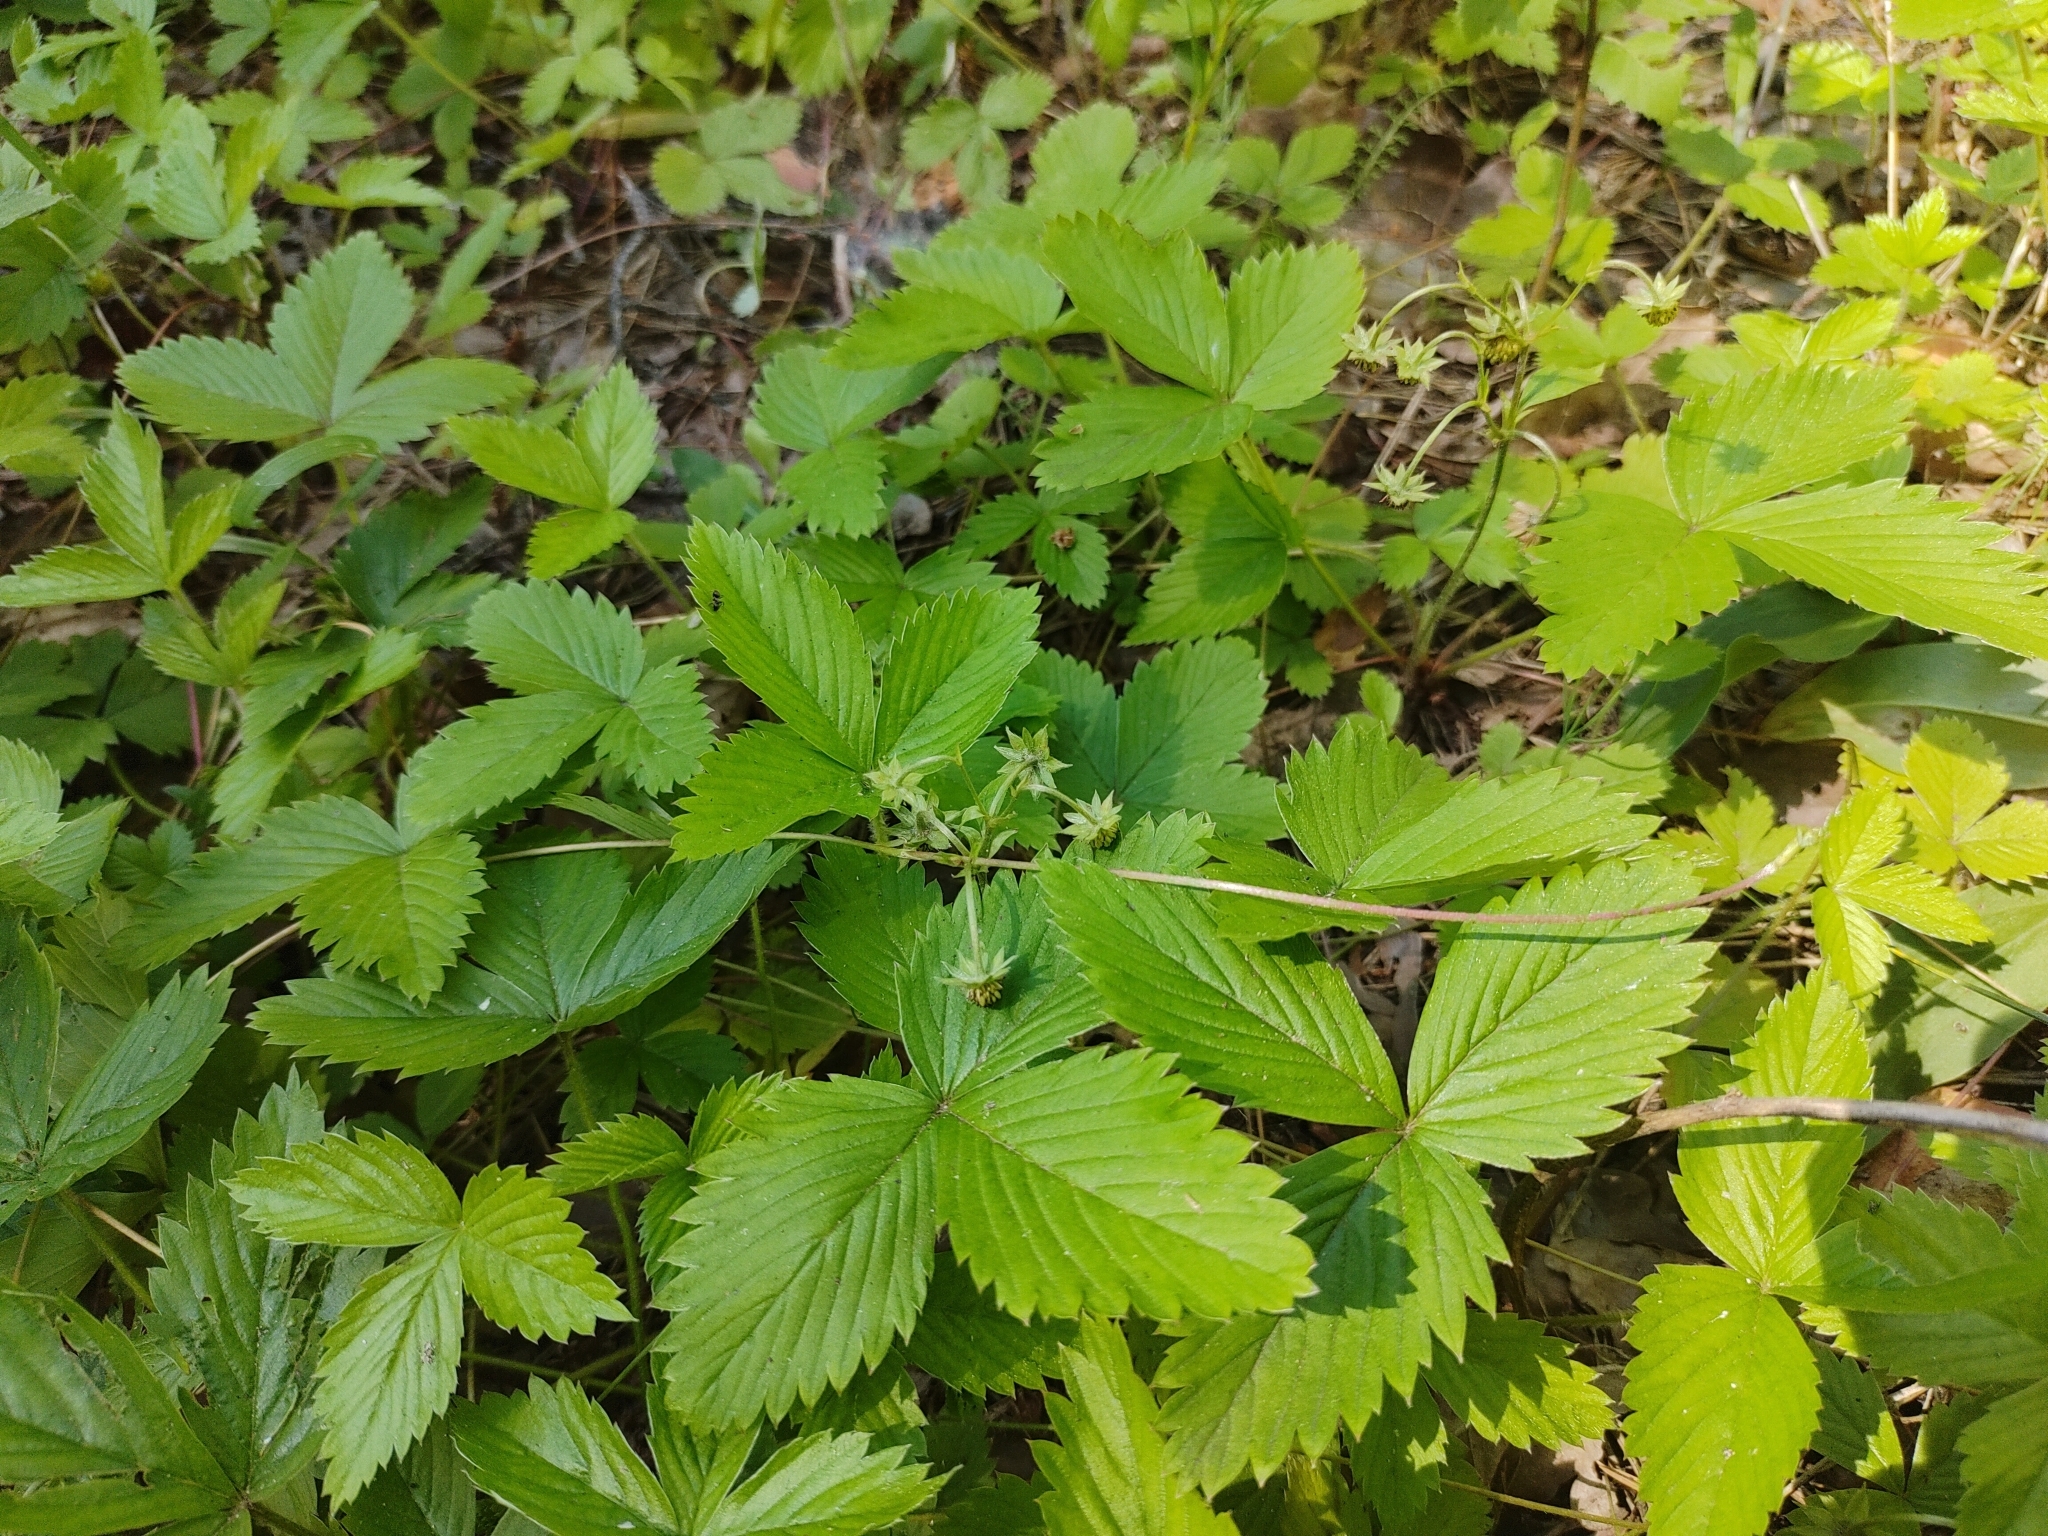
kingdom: Plantae
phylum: Tracheophyta
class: Magnoliopsida
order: Rosales
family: Rosaceae
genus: Fragaria
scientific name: Fragaria vesca
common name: Wild strawberry
